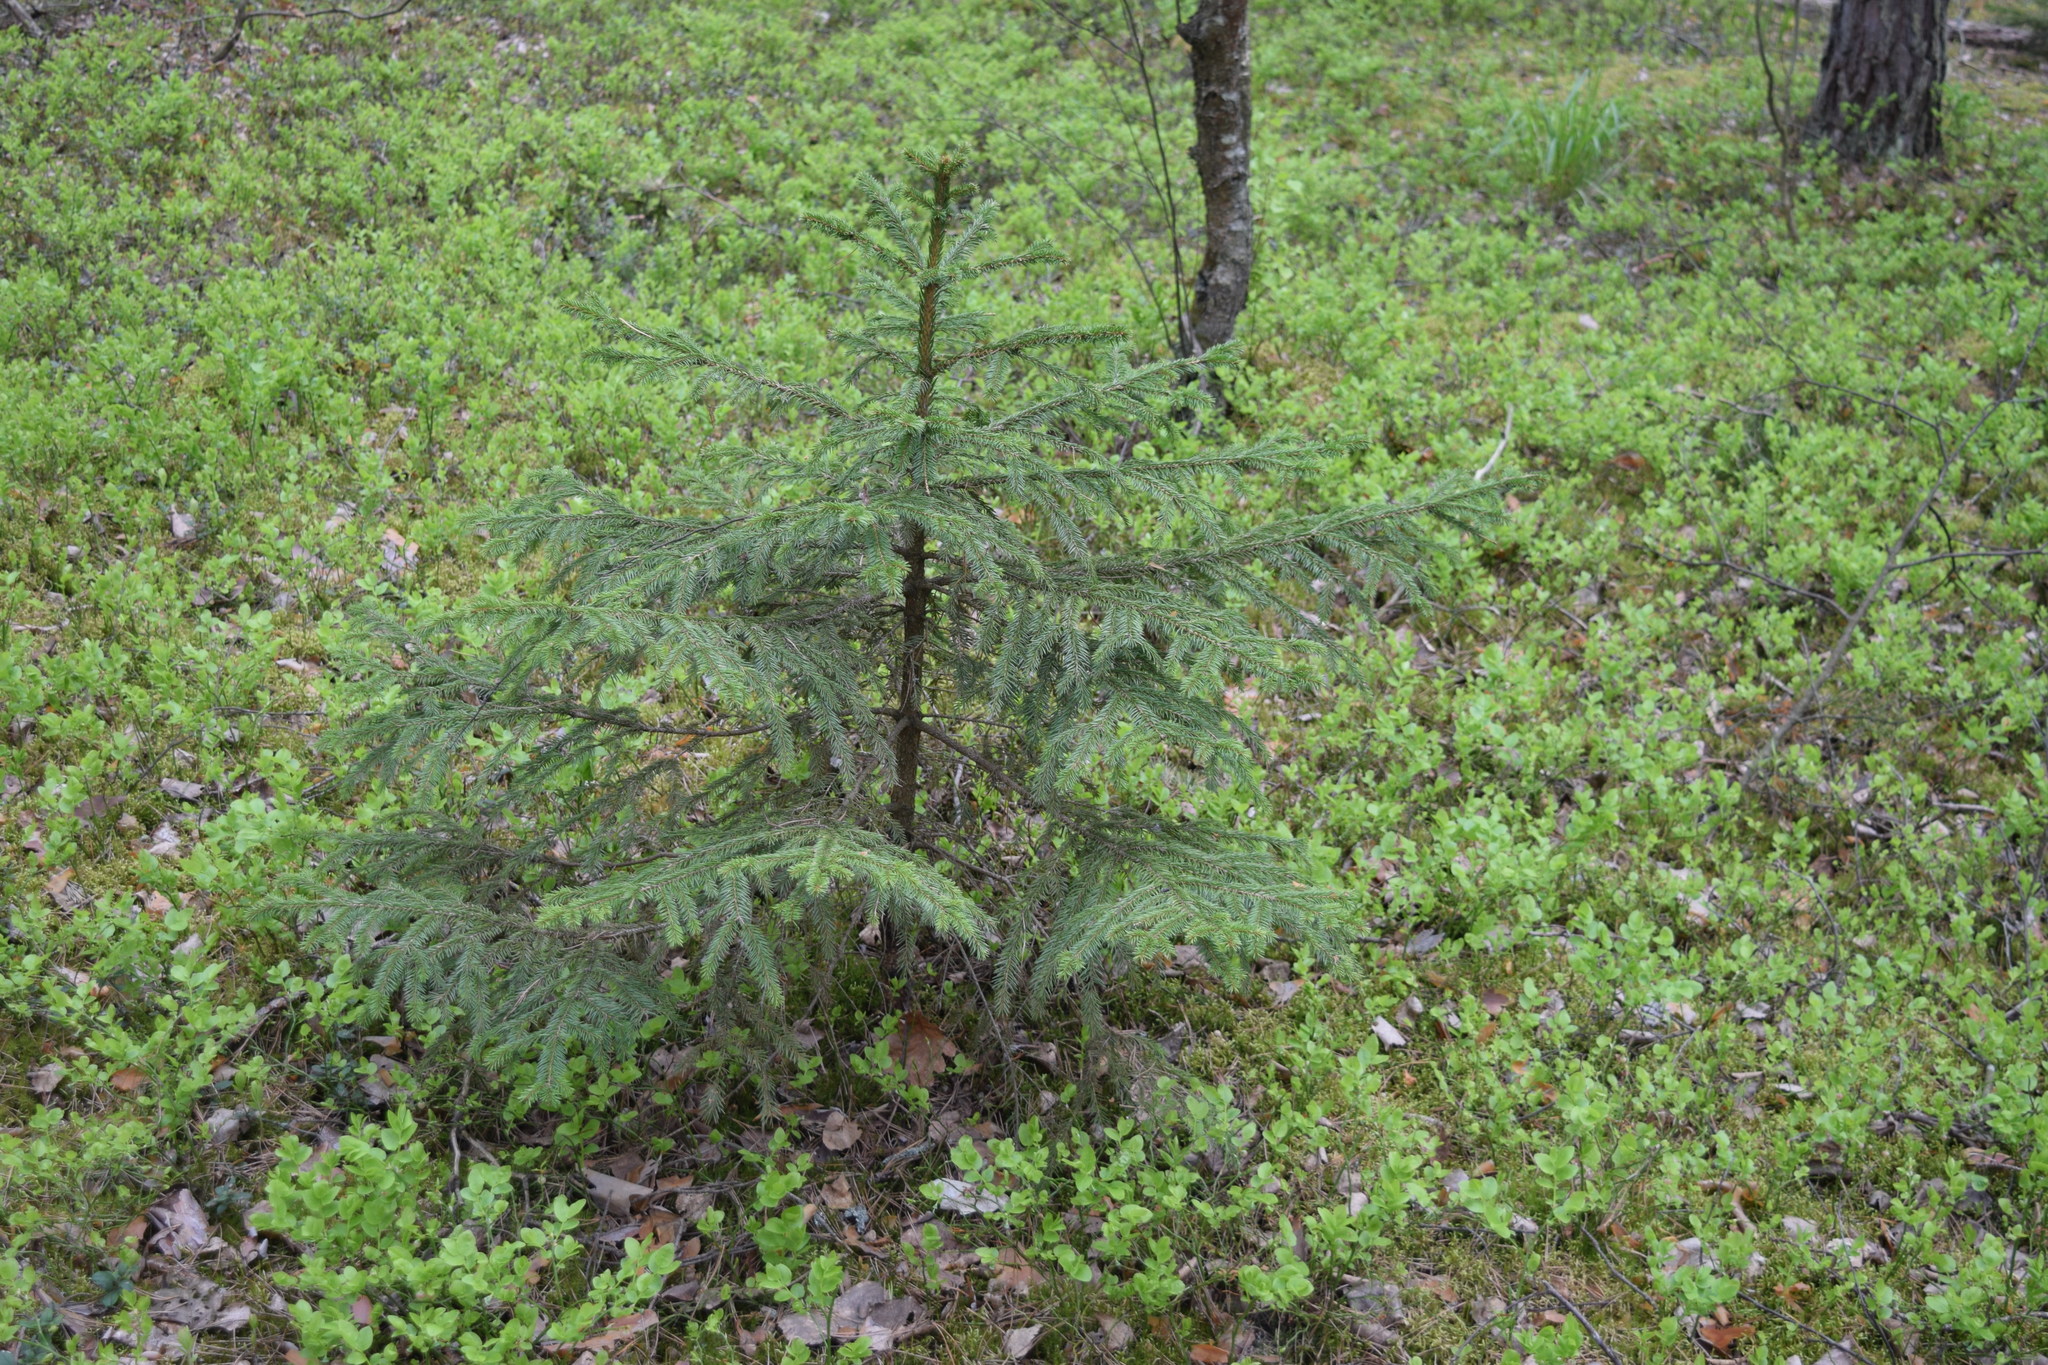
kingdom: Plantae
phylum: Tracheophyta
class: Pinopsida
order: Pinales
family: Pinaceae
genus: Picea
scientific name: Picea abies
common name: Norway spruce
